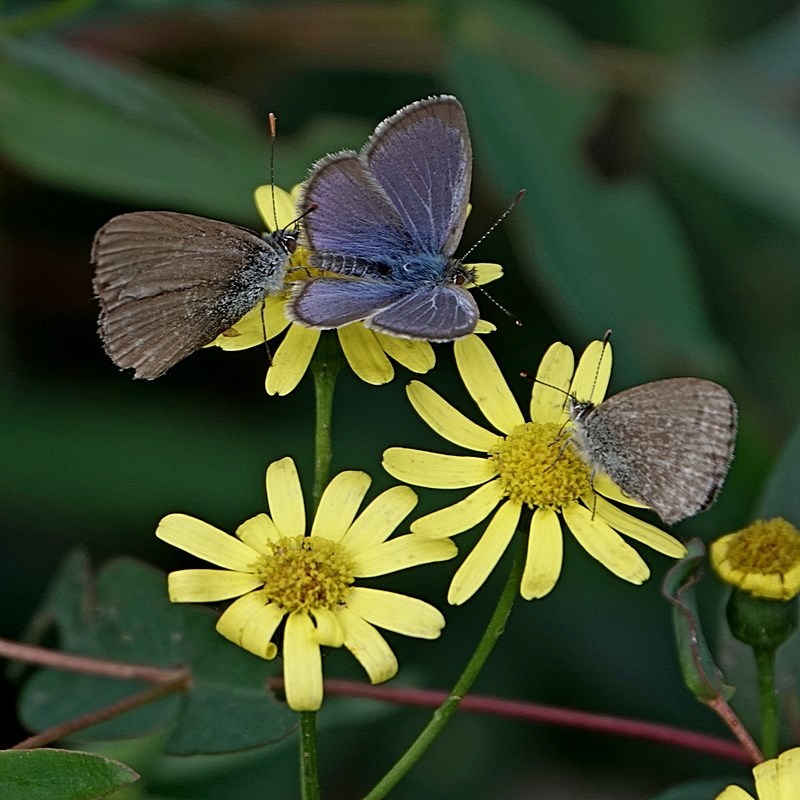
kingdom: Animalia
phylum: Arthropoda
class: Insecta
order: Lepidoptera
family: Lycaenidae
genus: Zizina
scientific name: Zizina labradus
